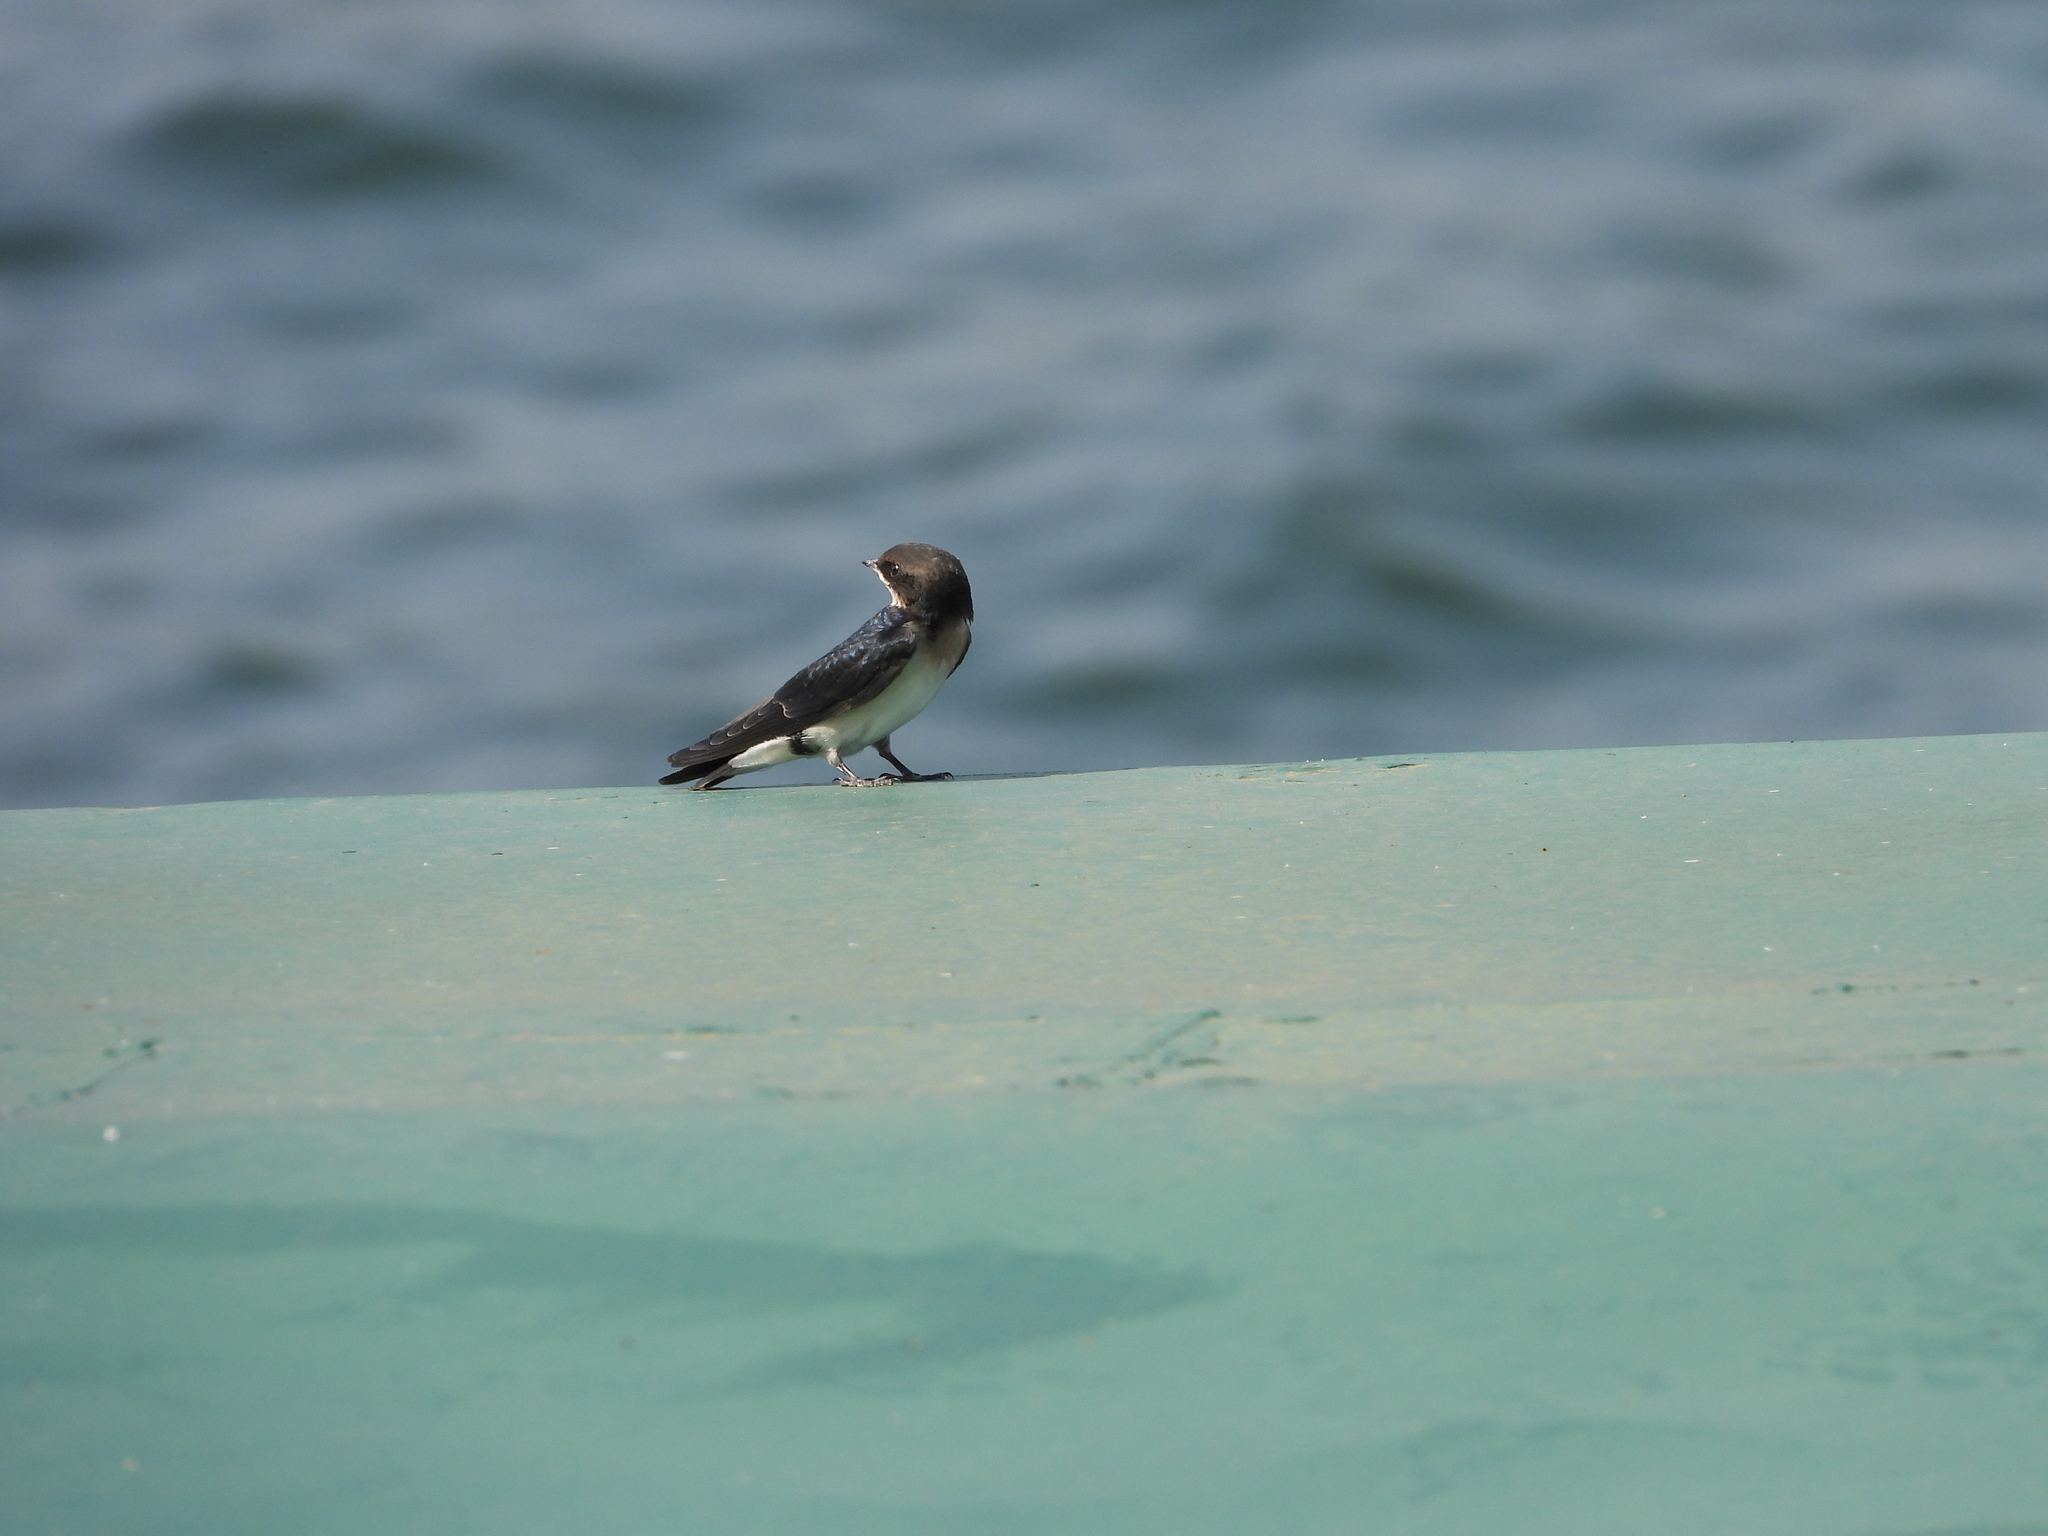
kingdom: Animalia
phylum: Chordata
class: Aves
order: Passeriformes
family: Hirundinidae
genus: Hirundo
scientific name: Hirundo smithii
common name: Wire-tailed swallow
